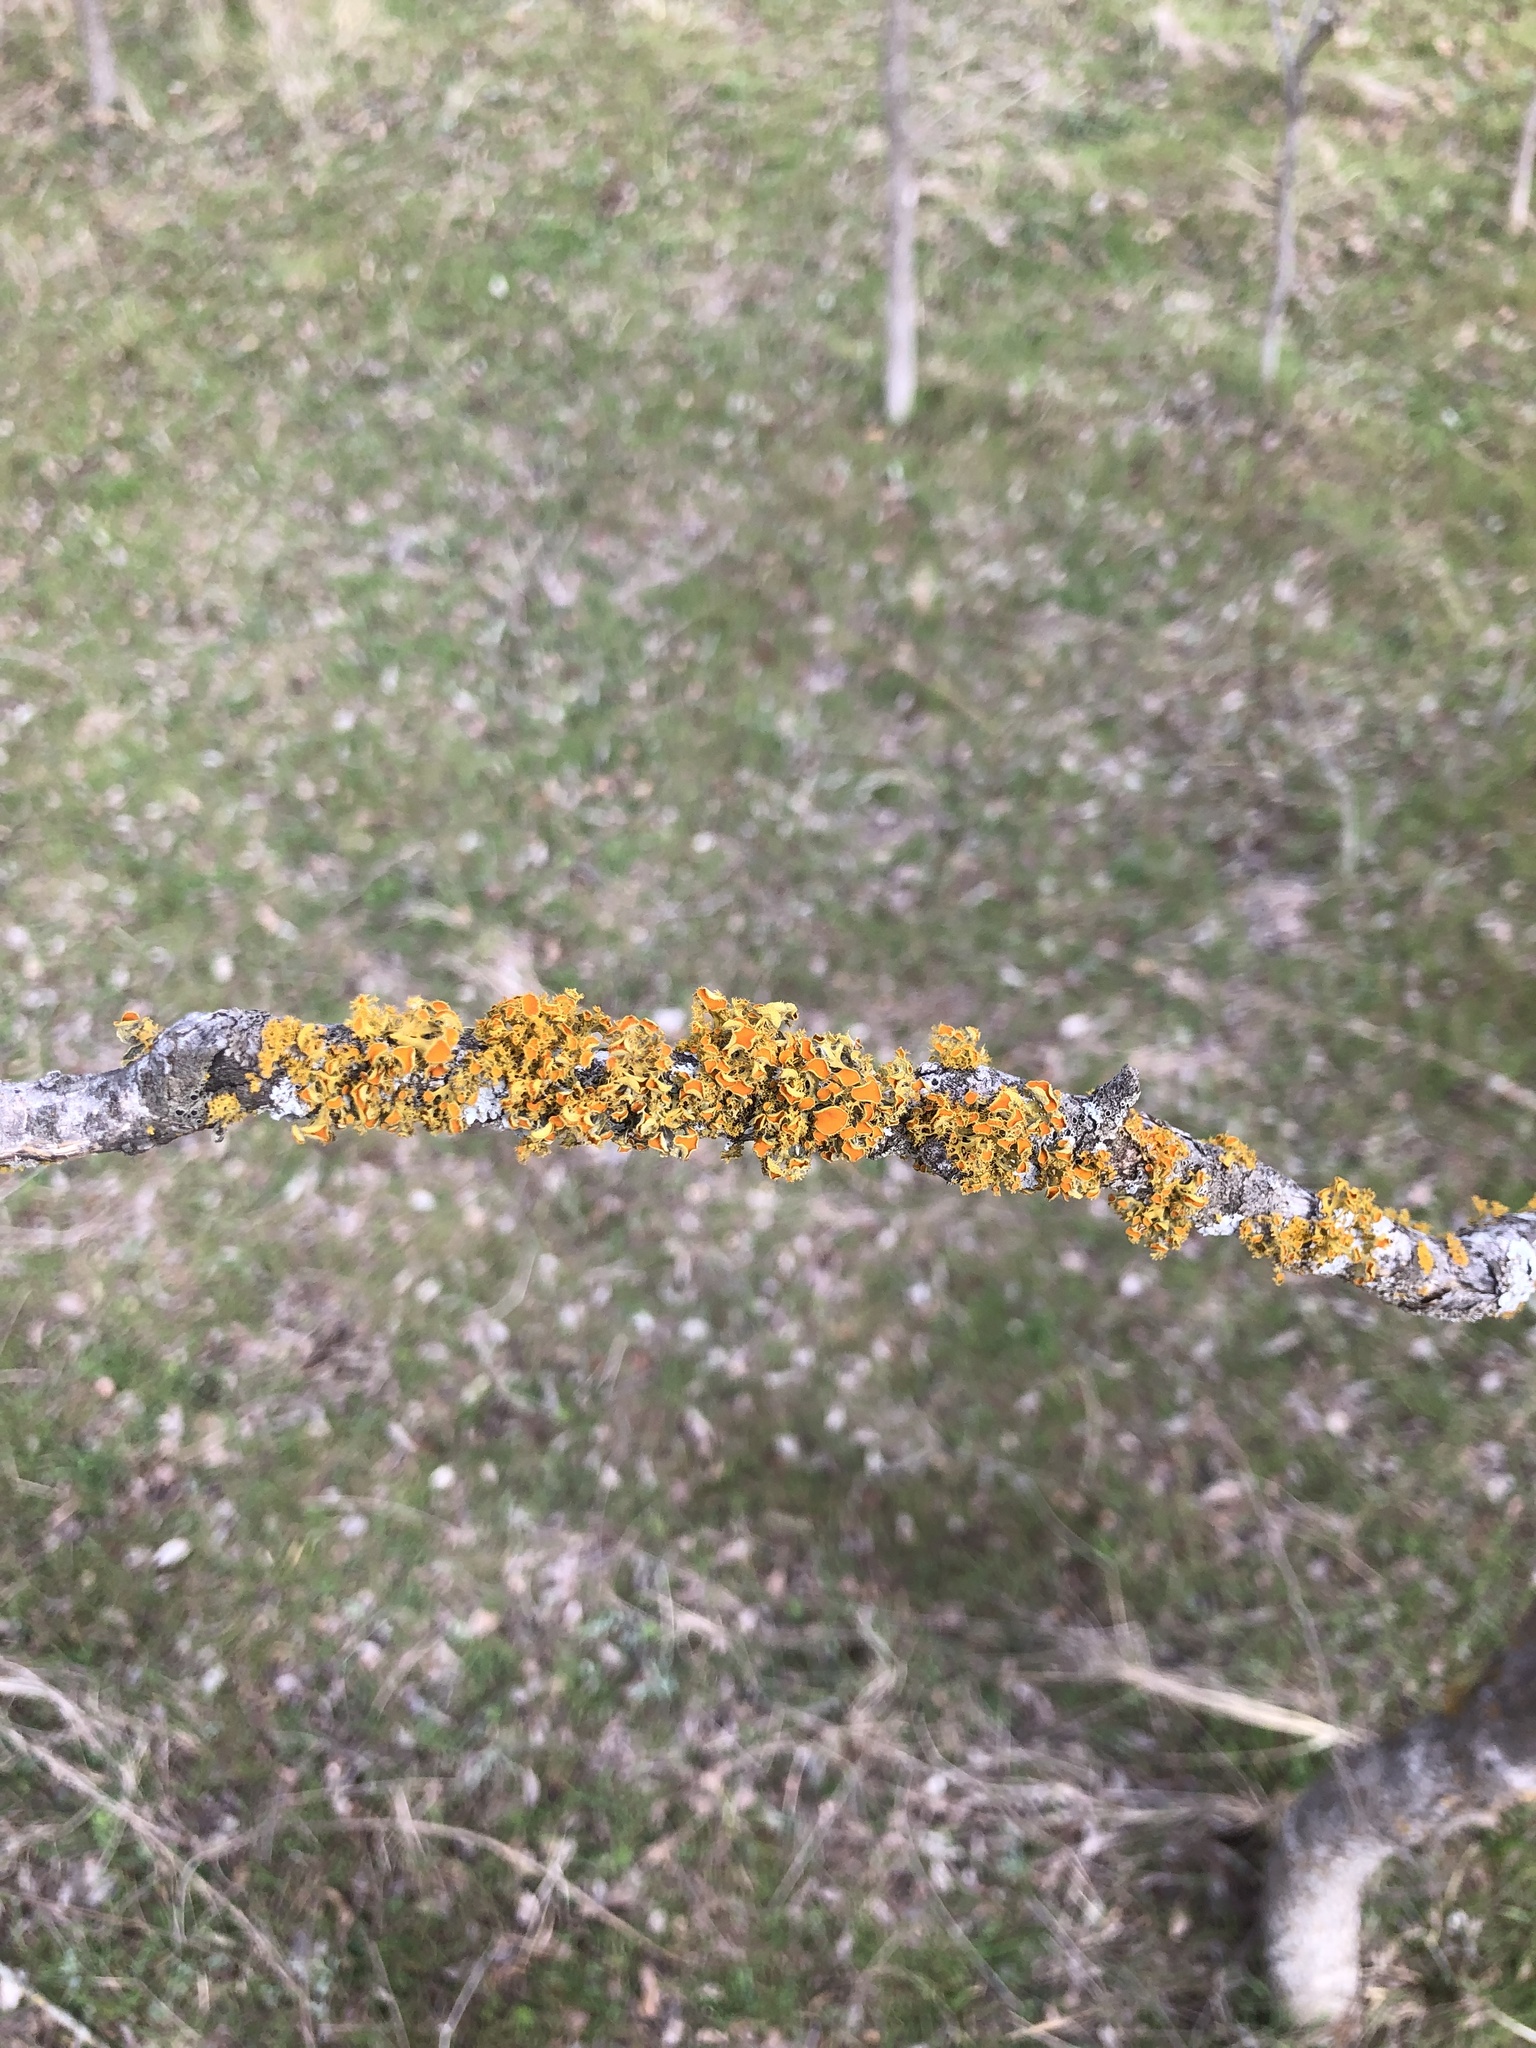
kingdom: Fungi
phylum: Ascomycota
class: Lecanoromycetes
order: Teloschistales
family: Teloschistaceae
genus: Niorma
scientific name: Niorma chrysophthalma
